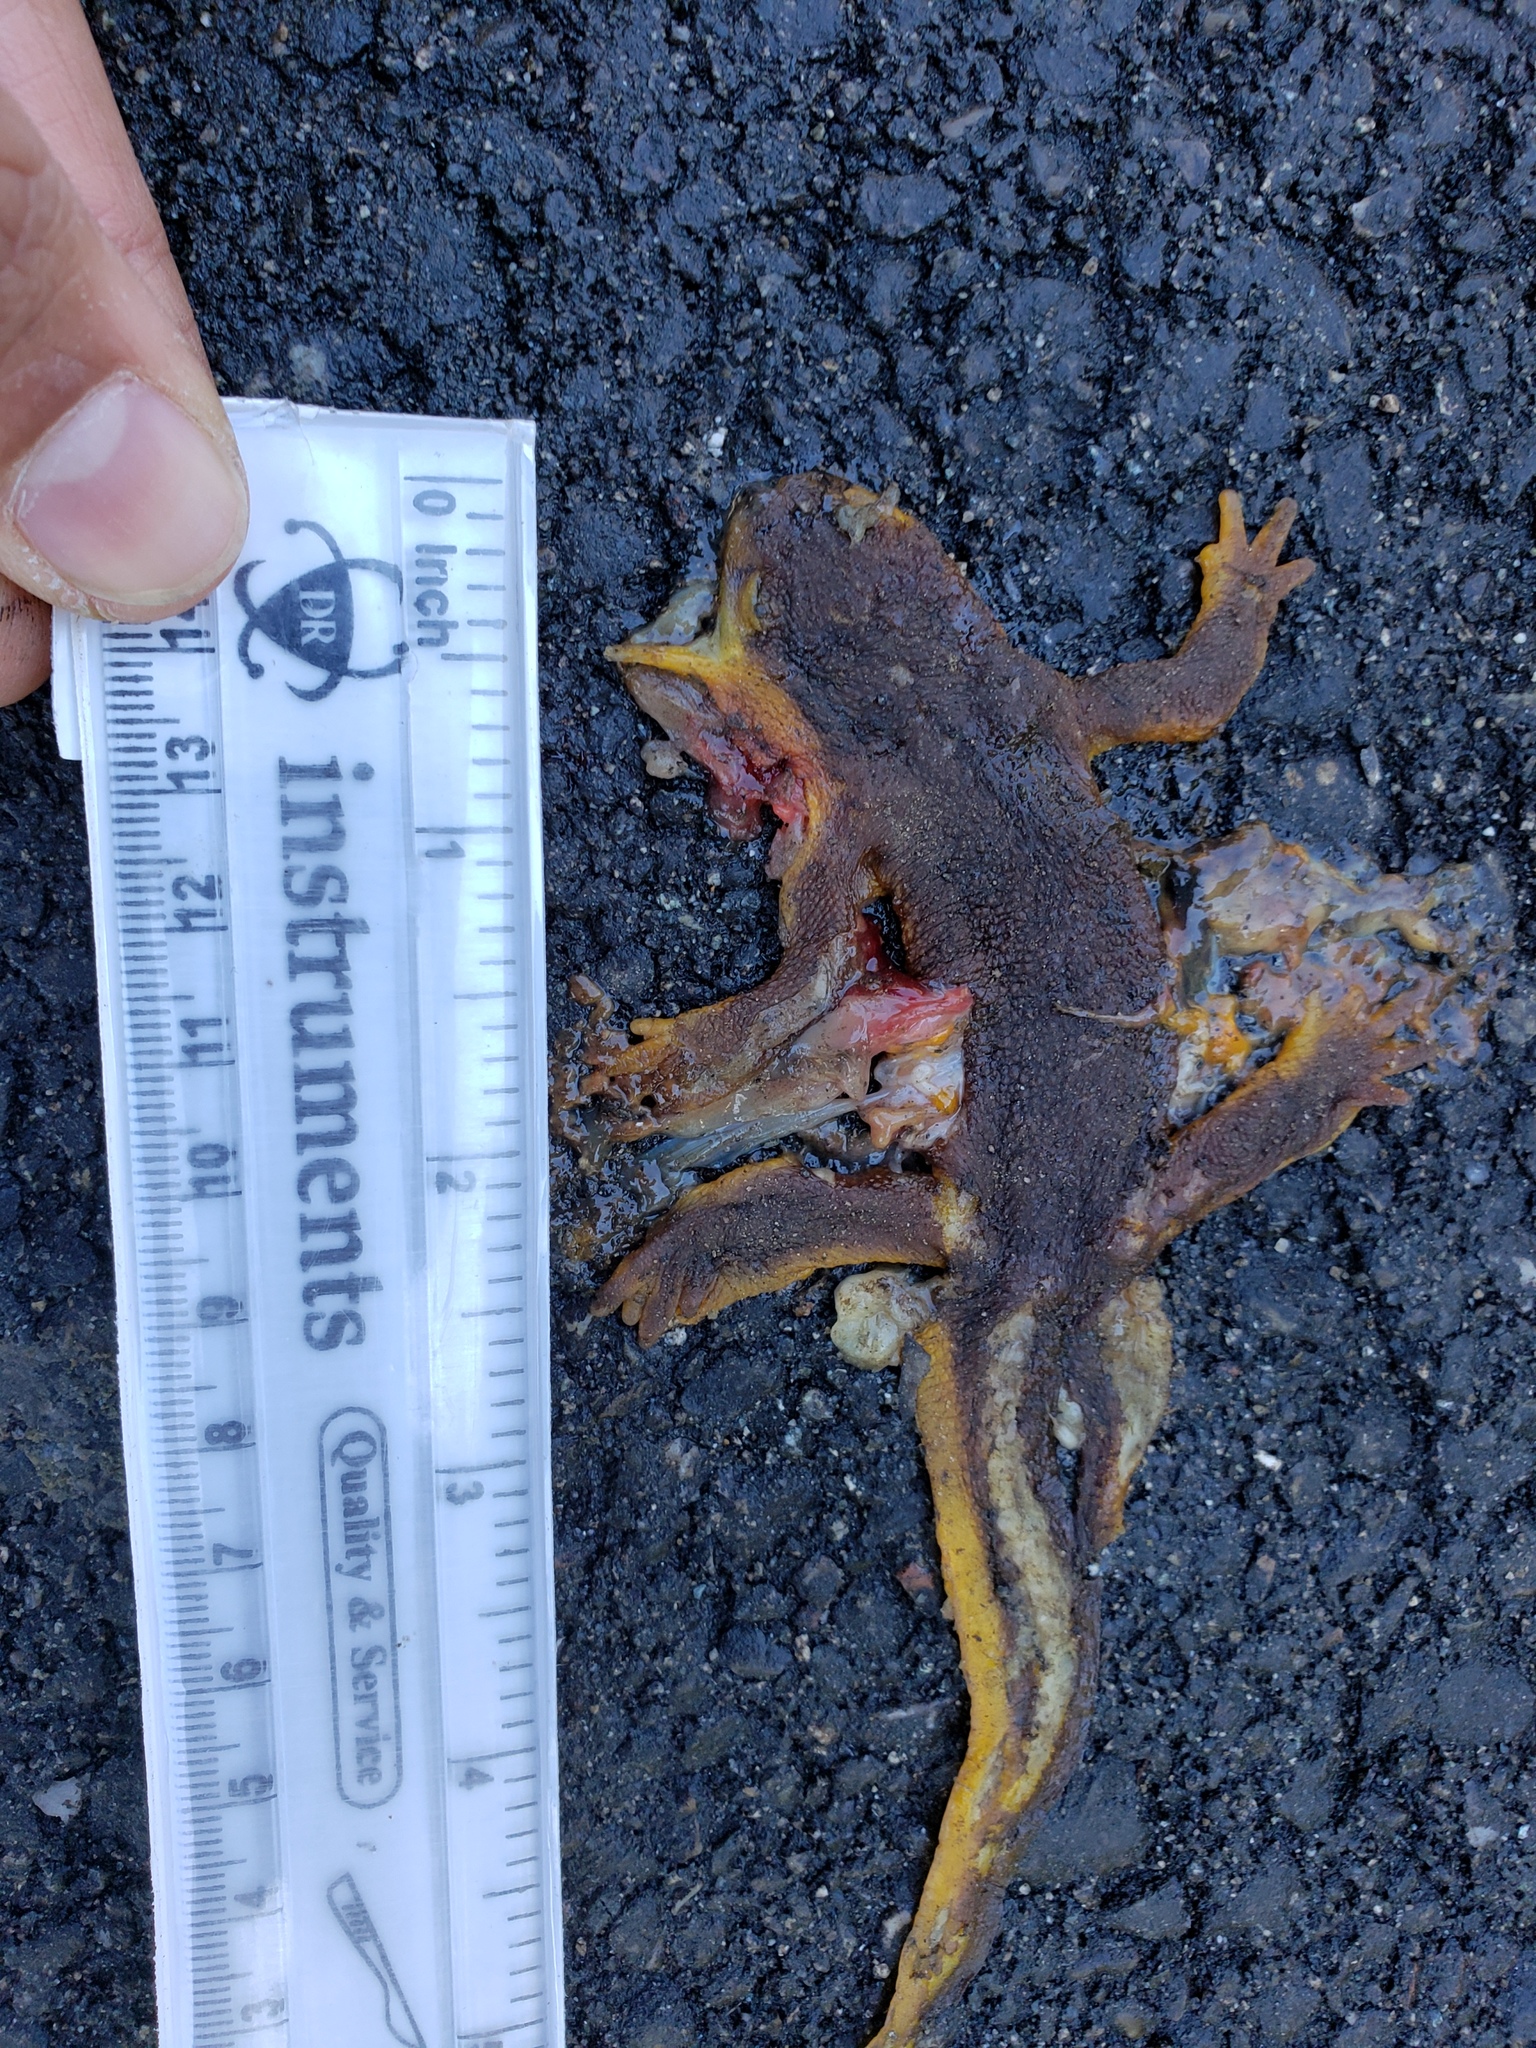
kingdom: Animalia
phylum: Chordata
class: Amphibia
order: Caudata
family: Salamandridae
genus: Taricha
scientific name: Taricha
